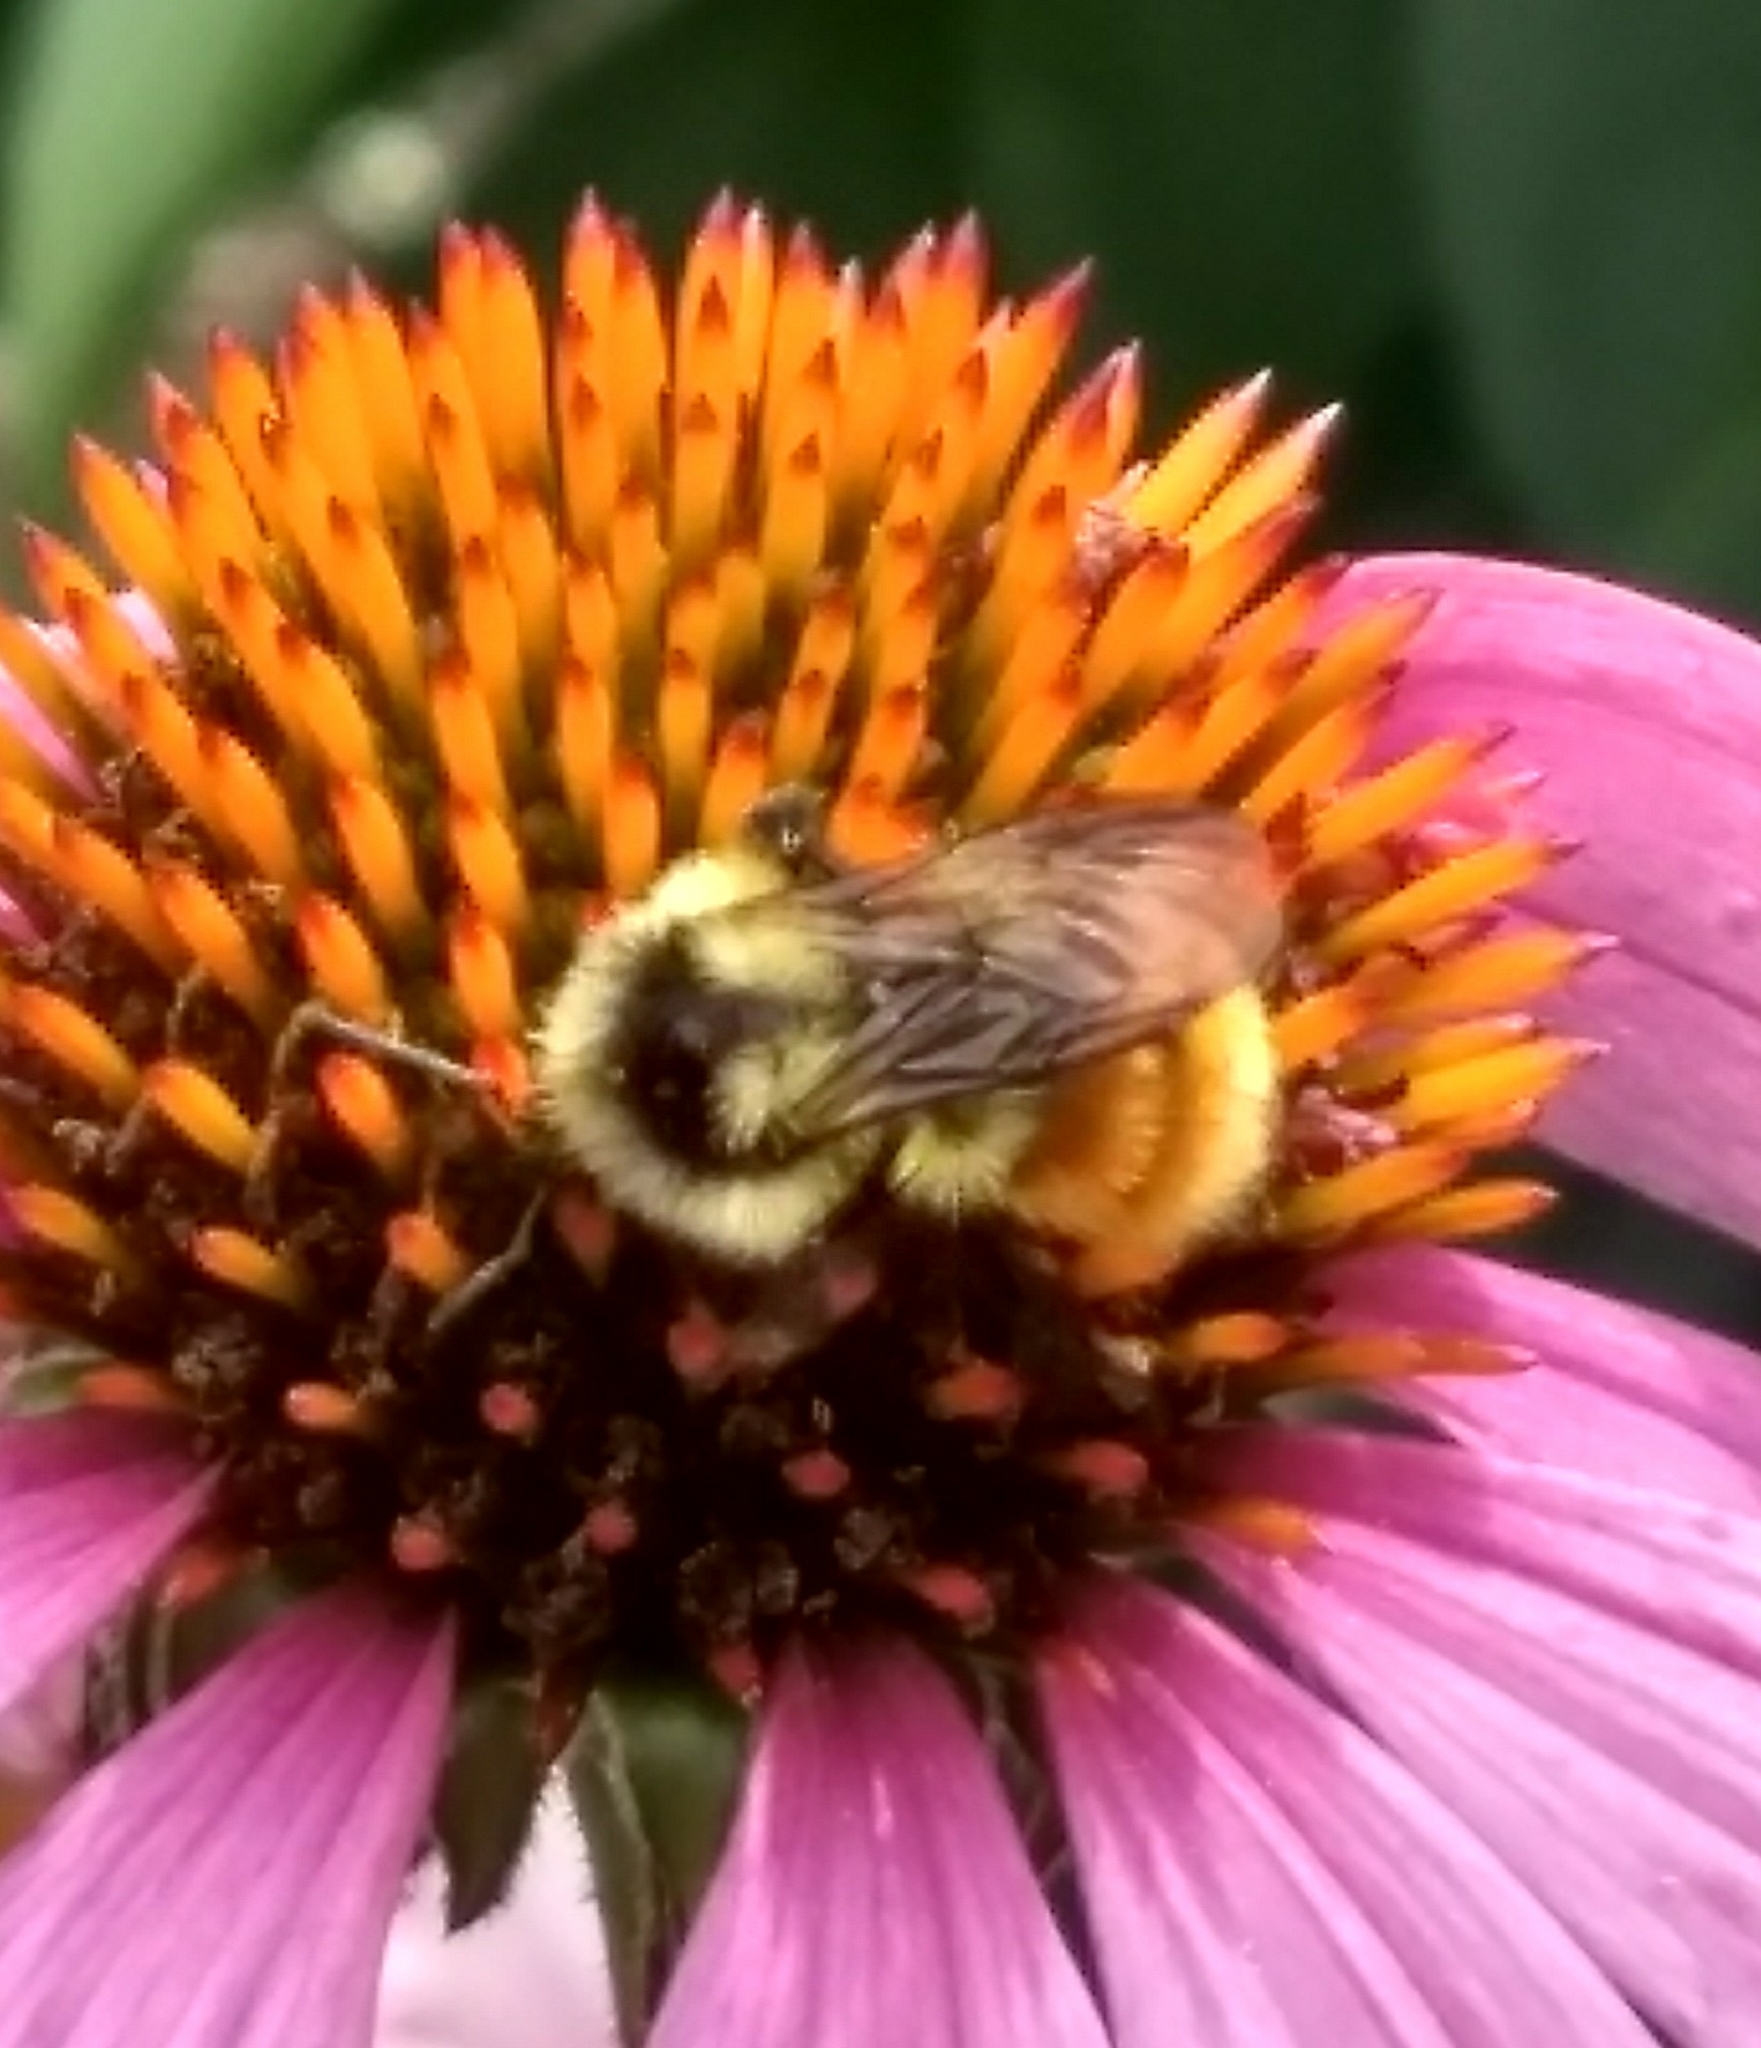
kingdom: Animalia
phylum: Arthropoda
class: Insecta
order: Hymenoptera
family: Apidae
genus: Bombus
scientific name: Bombus ternarius
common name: Tri-colored bumble bee
